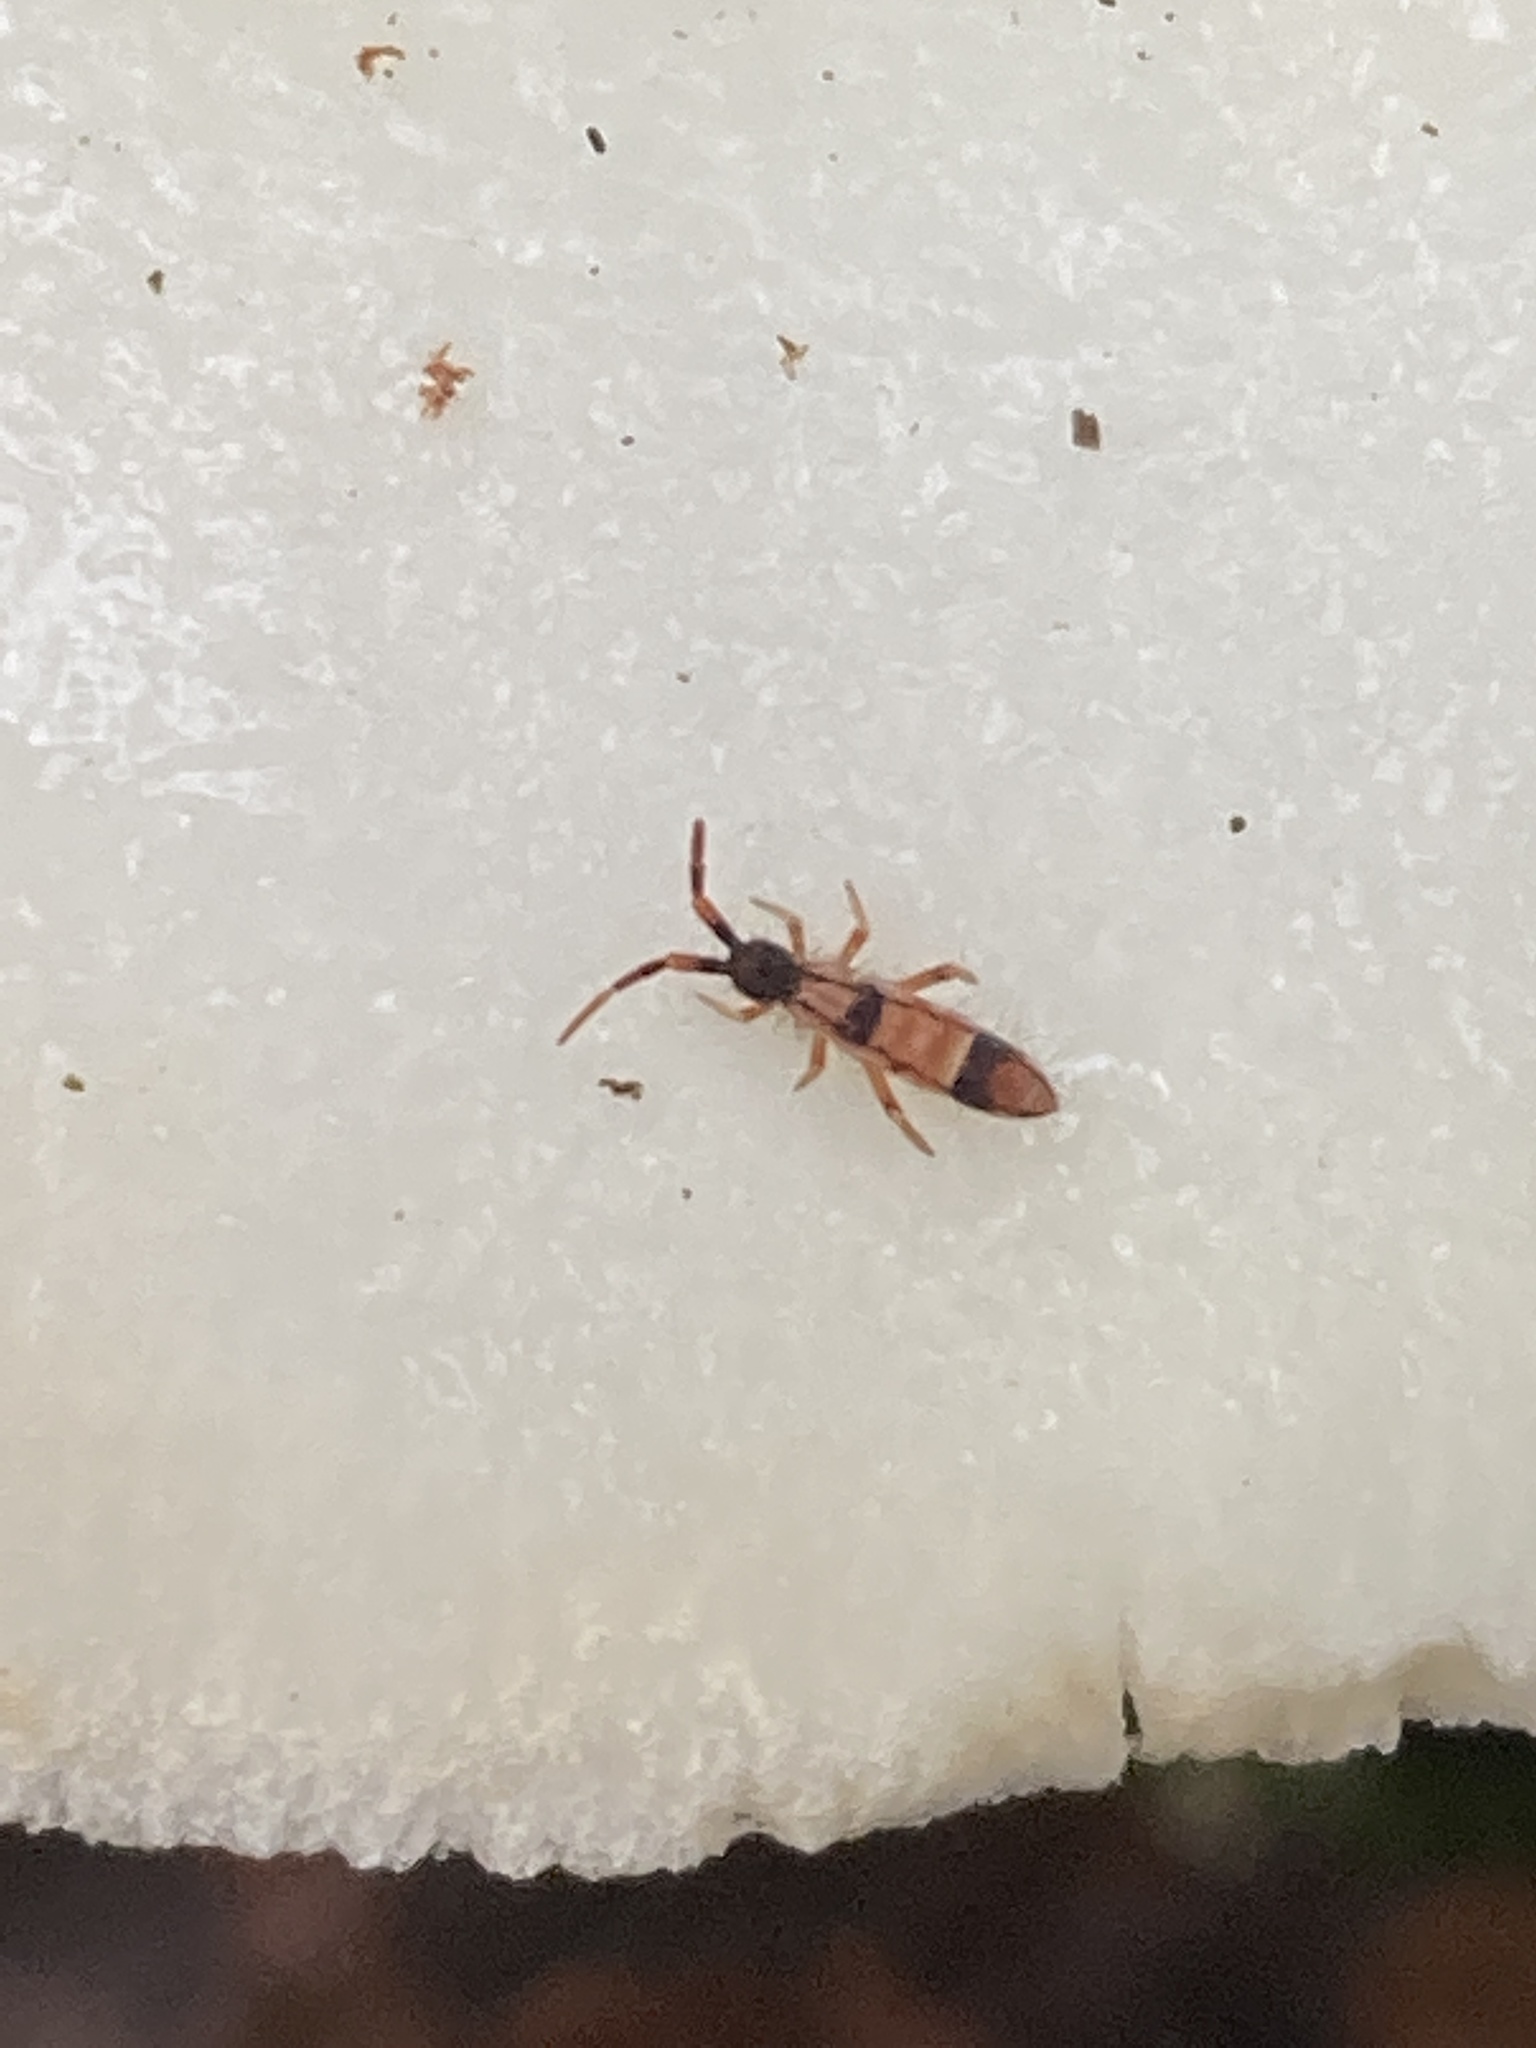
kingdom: Animalia
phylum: Arthropoda
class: Collembola
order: Entomobryomorpha
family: Entomobryidae
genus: Entomobrya
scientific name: Entomobrya nivalis
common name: Cosmopolitan springtail
